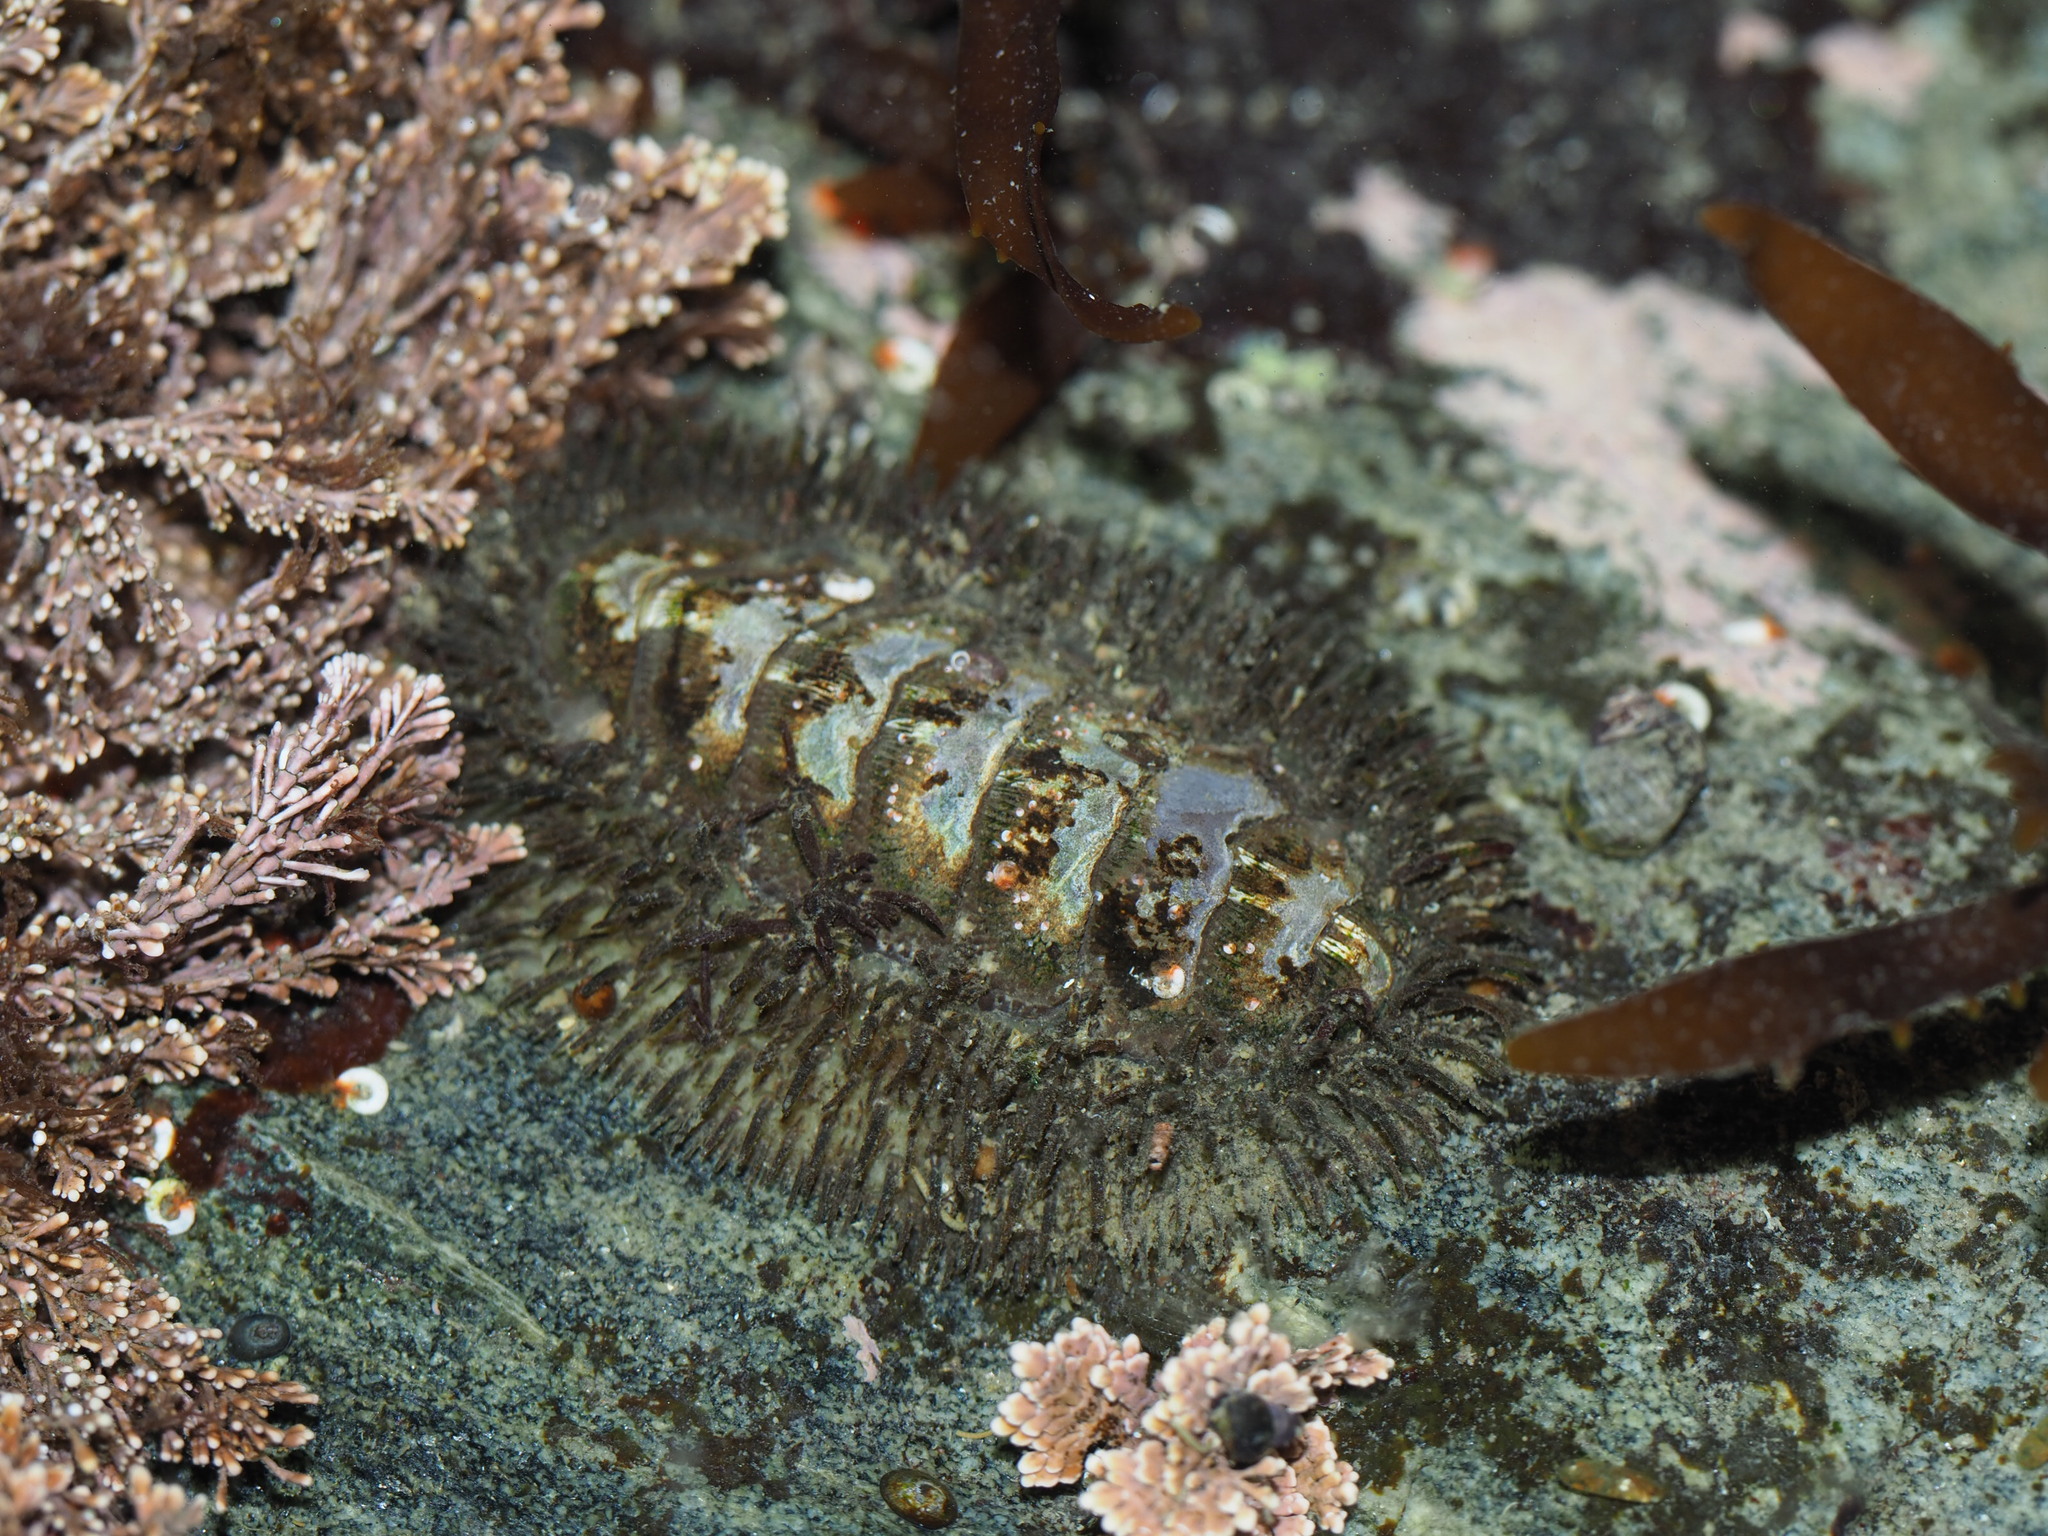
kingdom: Animalia
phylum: Mollusca
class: Polyplacophora
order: Chitonida
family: Mopaliidae
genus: Mopalia
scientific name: Mopalia muscosa
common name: Mossy chiton
